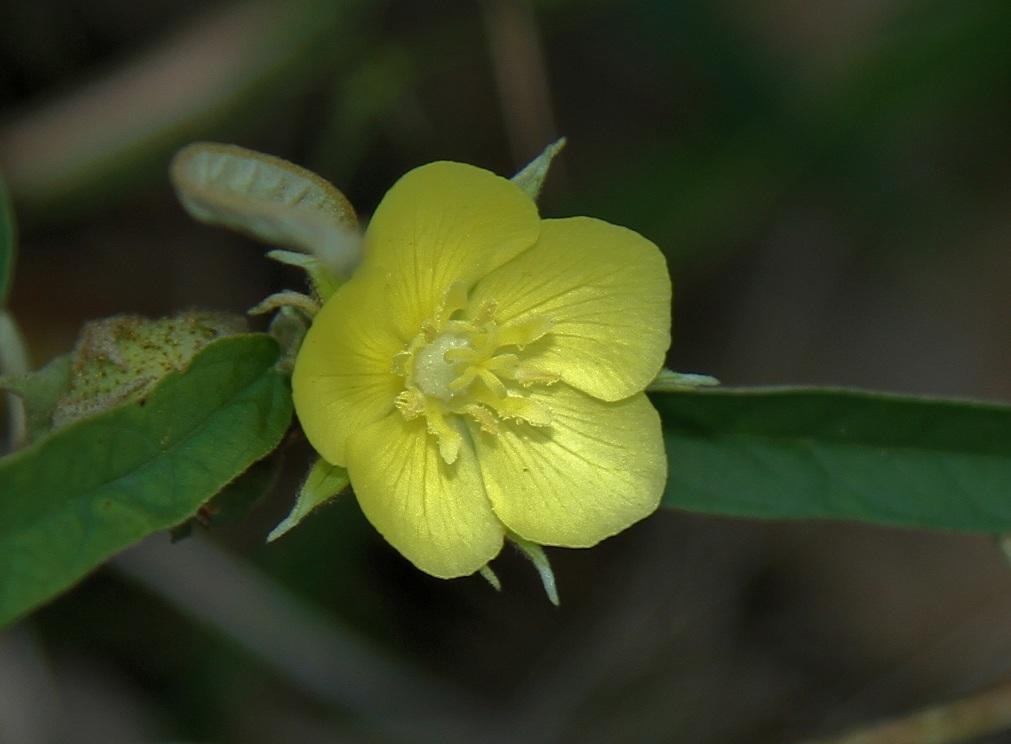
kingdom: Plantae
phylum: Tracheophyta
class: Magnoliopsida
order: Malvales
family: Malvaceae
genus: Melhania
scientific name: Melhania prostrata
